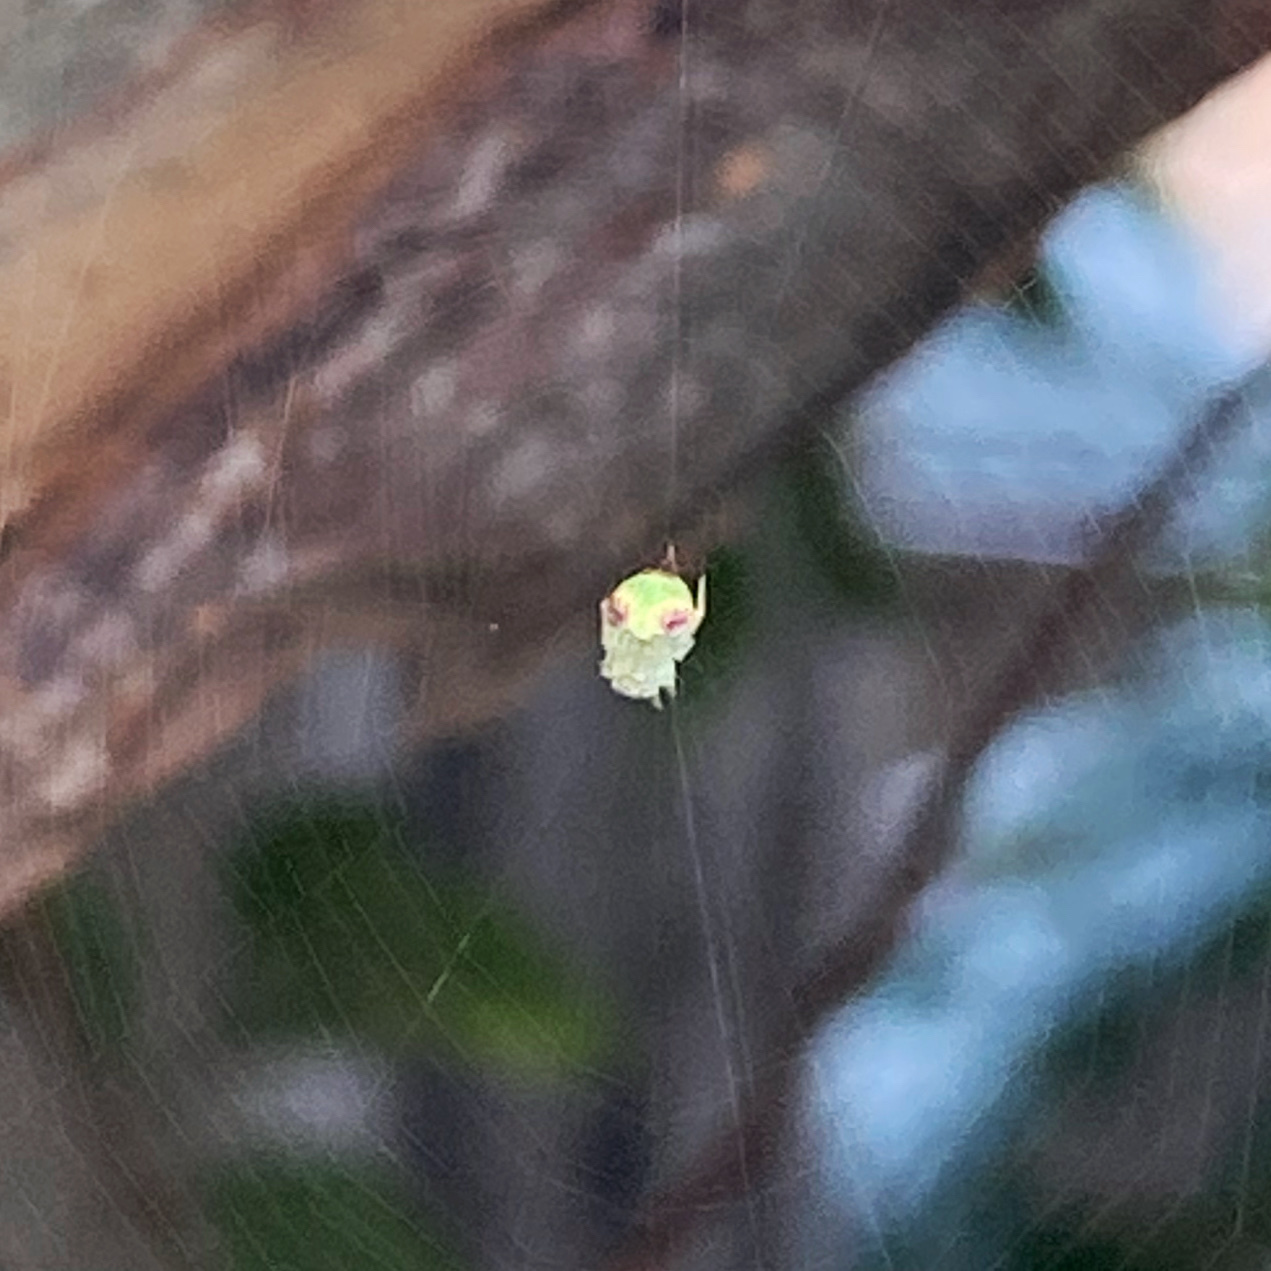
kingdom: Animalia
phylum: Arthropoda
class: Arachnida
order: Araneae
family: Araneidae
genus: Araneus
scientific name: Araneus circulissparsus
